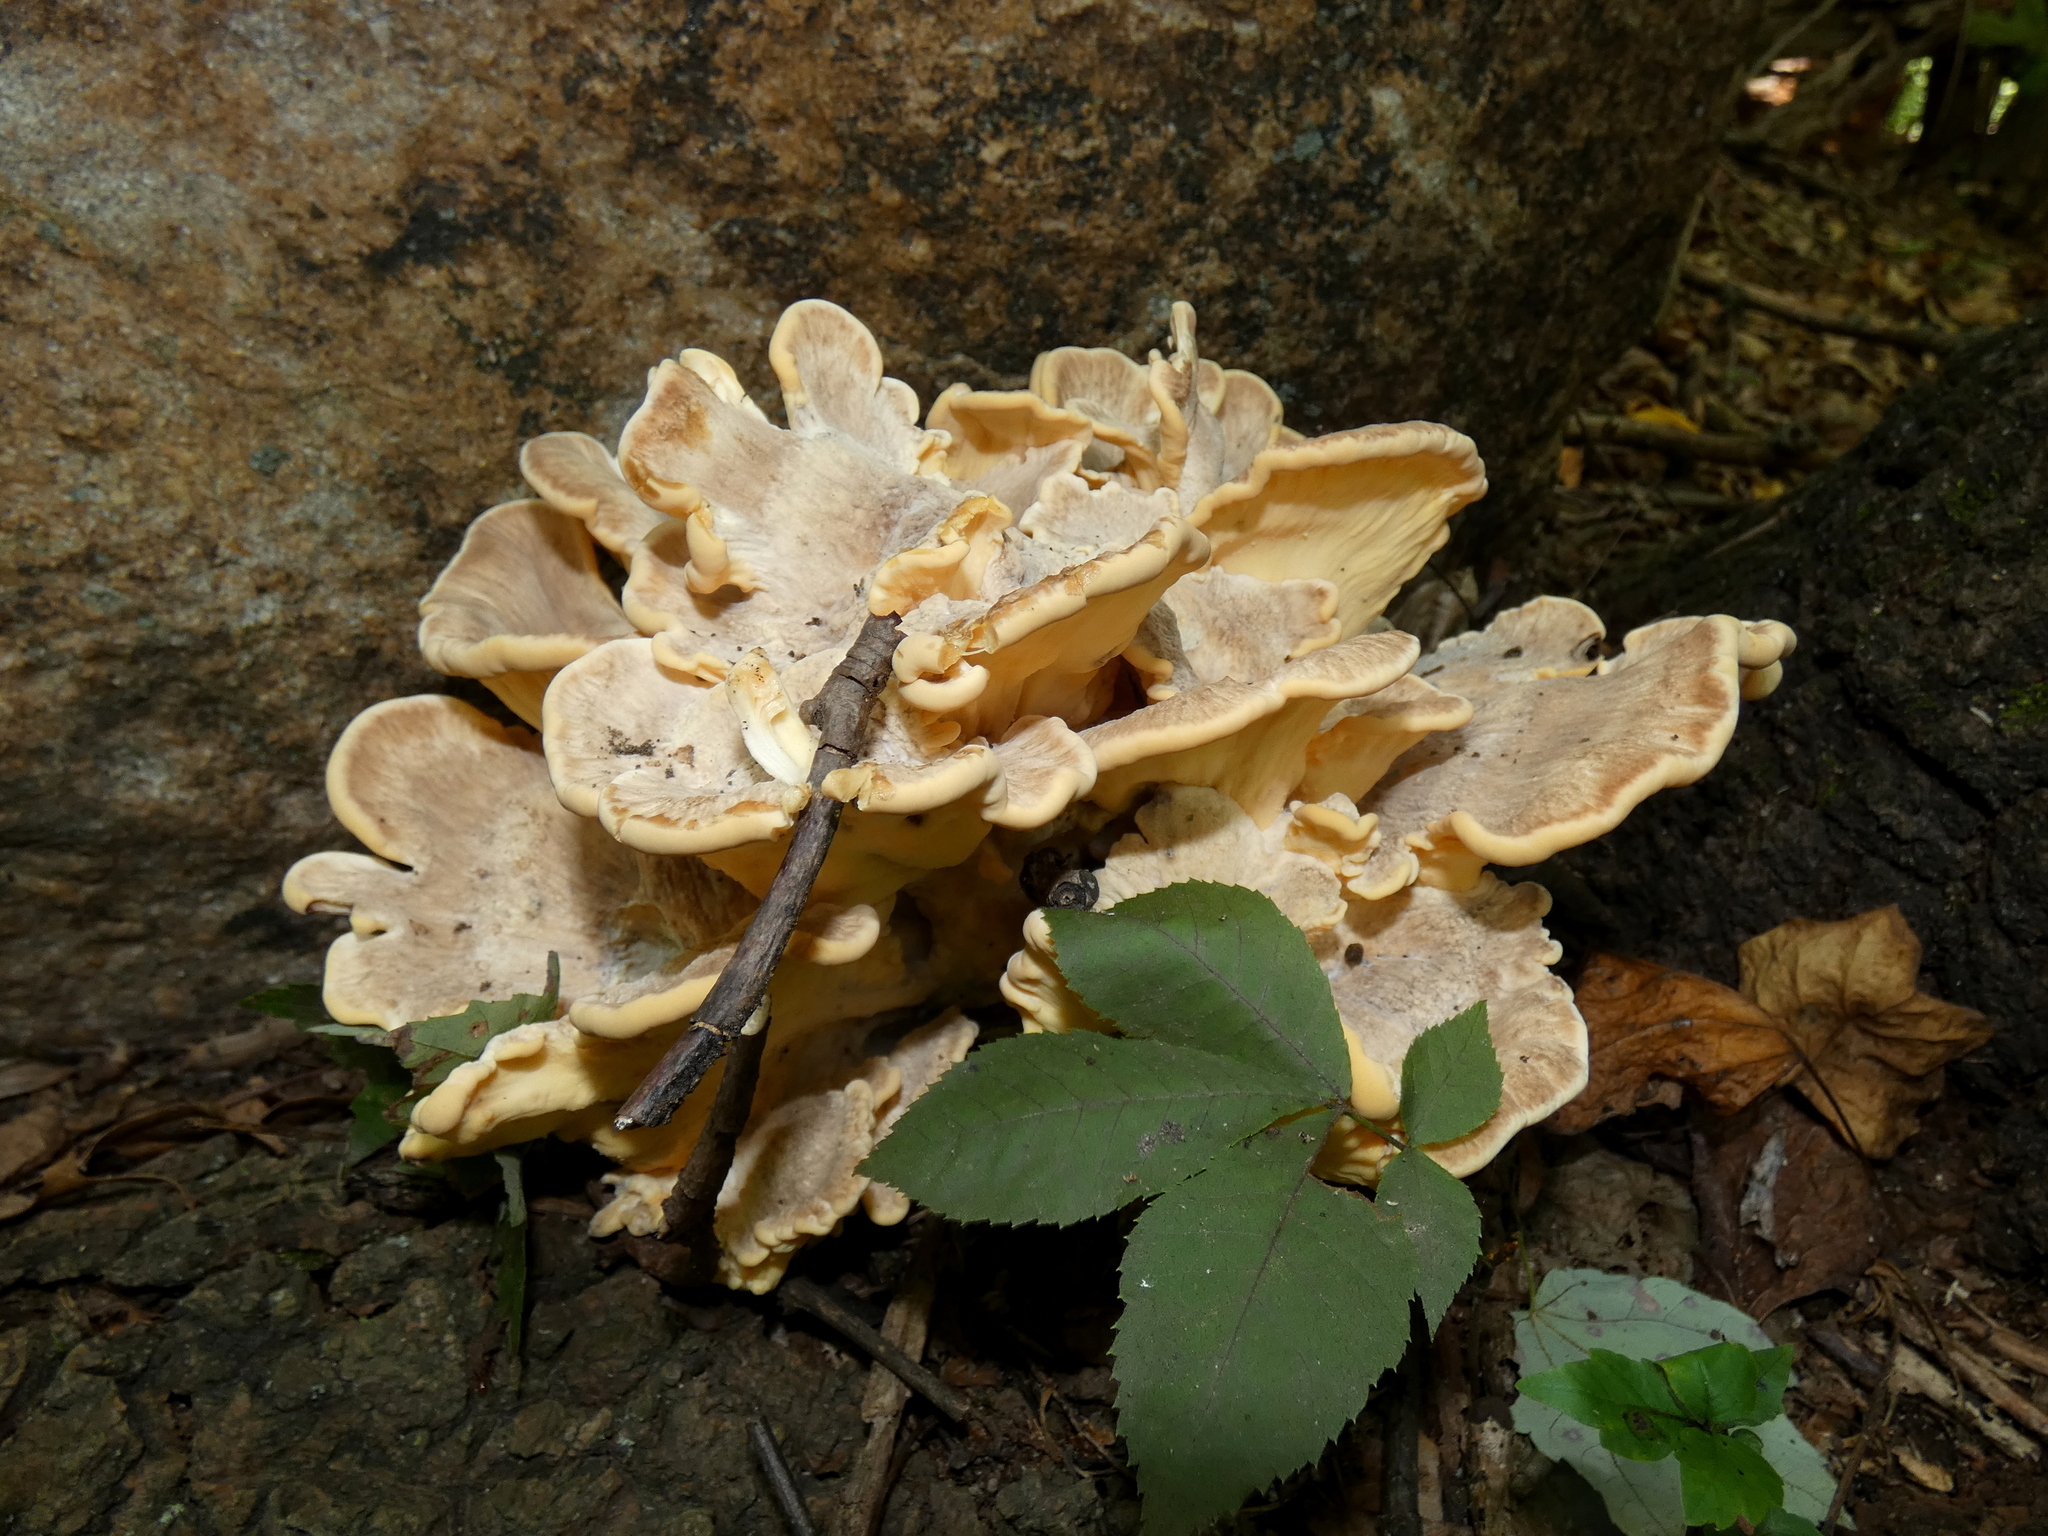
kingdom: Fungi
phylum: Basidiomycota
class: Agaricomycetes
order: Polyporales
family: Meripilaceae
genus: Meripilus
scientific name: Meripilus sumstinei
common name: Black-staining polypore
